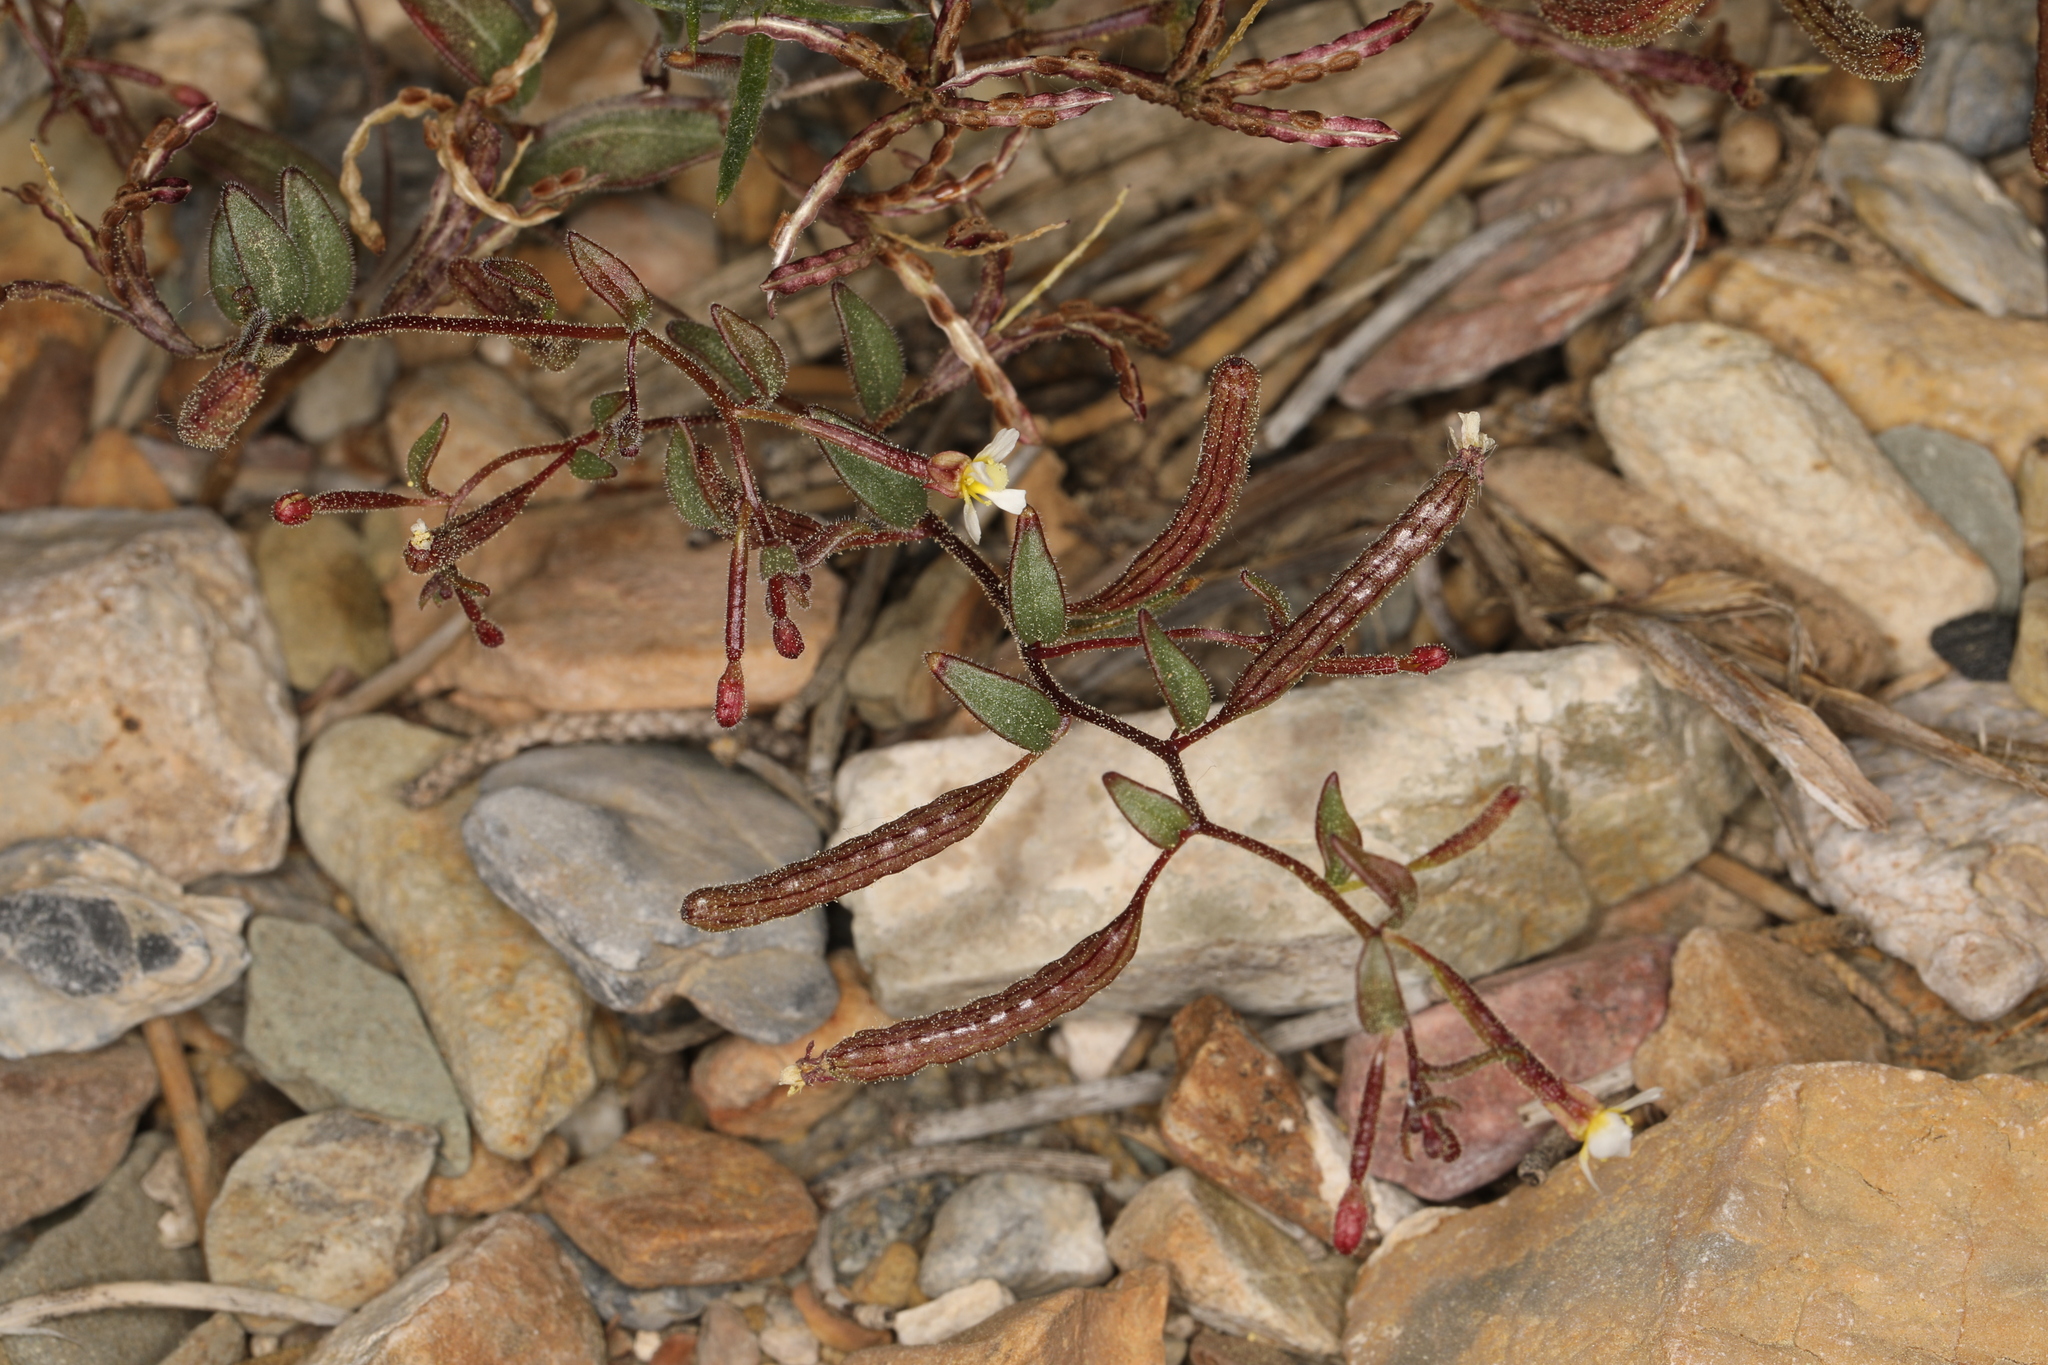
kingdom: Plantae
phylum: Tracheophyta
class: Magnoliopsida
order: Myrtales
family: Onagraceae
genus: Chylismiella
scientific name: Chylismiella pterosperma
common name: Wingfruit suncup
